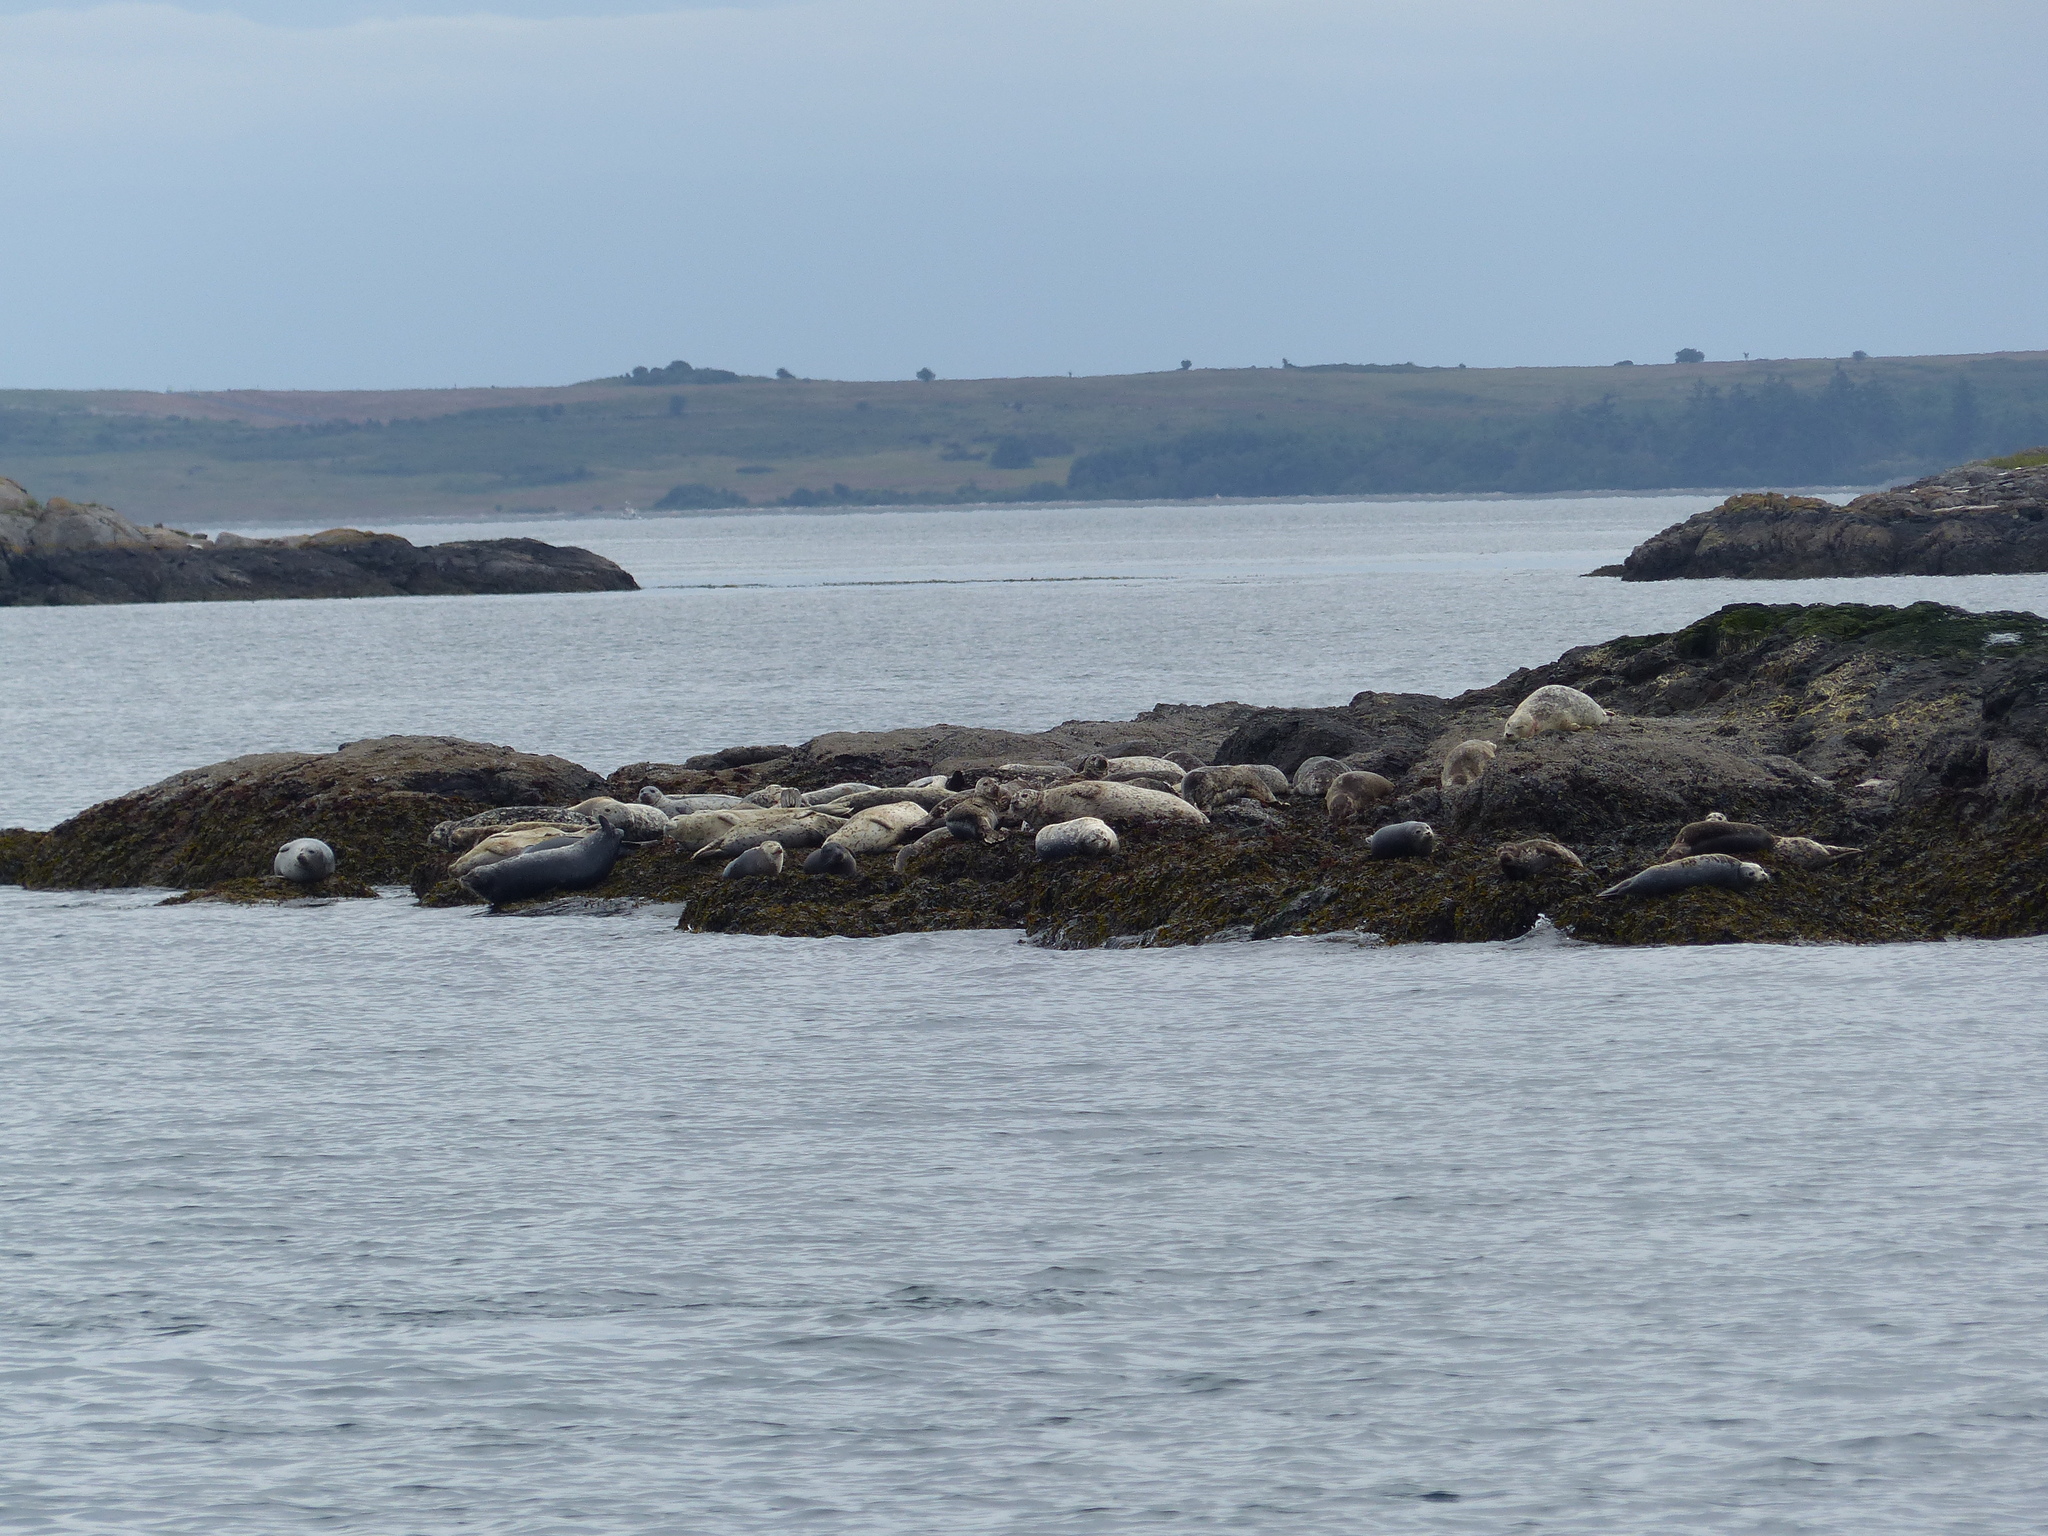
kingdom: Animalia
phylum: Chordata
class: Mammalia
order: Carnivora
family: Phocidae
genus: Phoca
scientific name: Phoca vitulina
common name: Harbor seal
